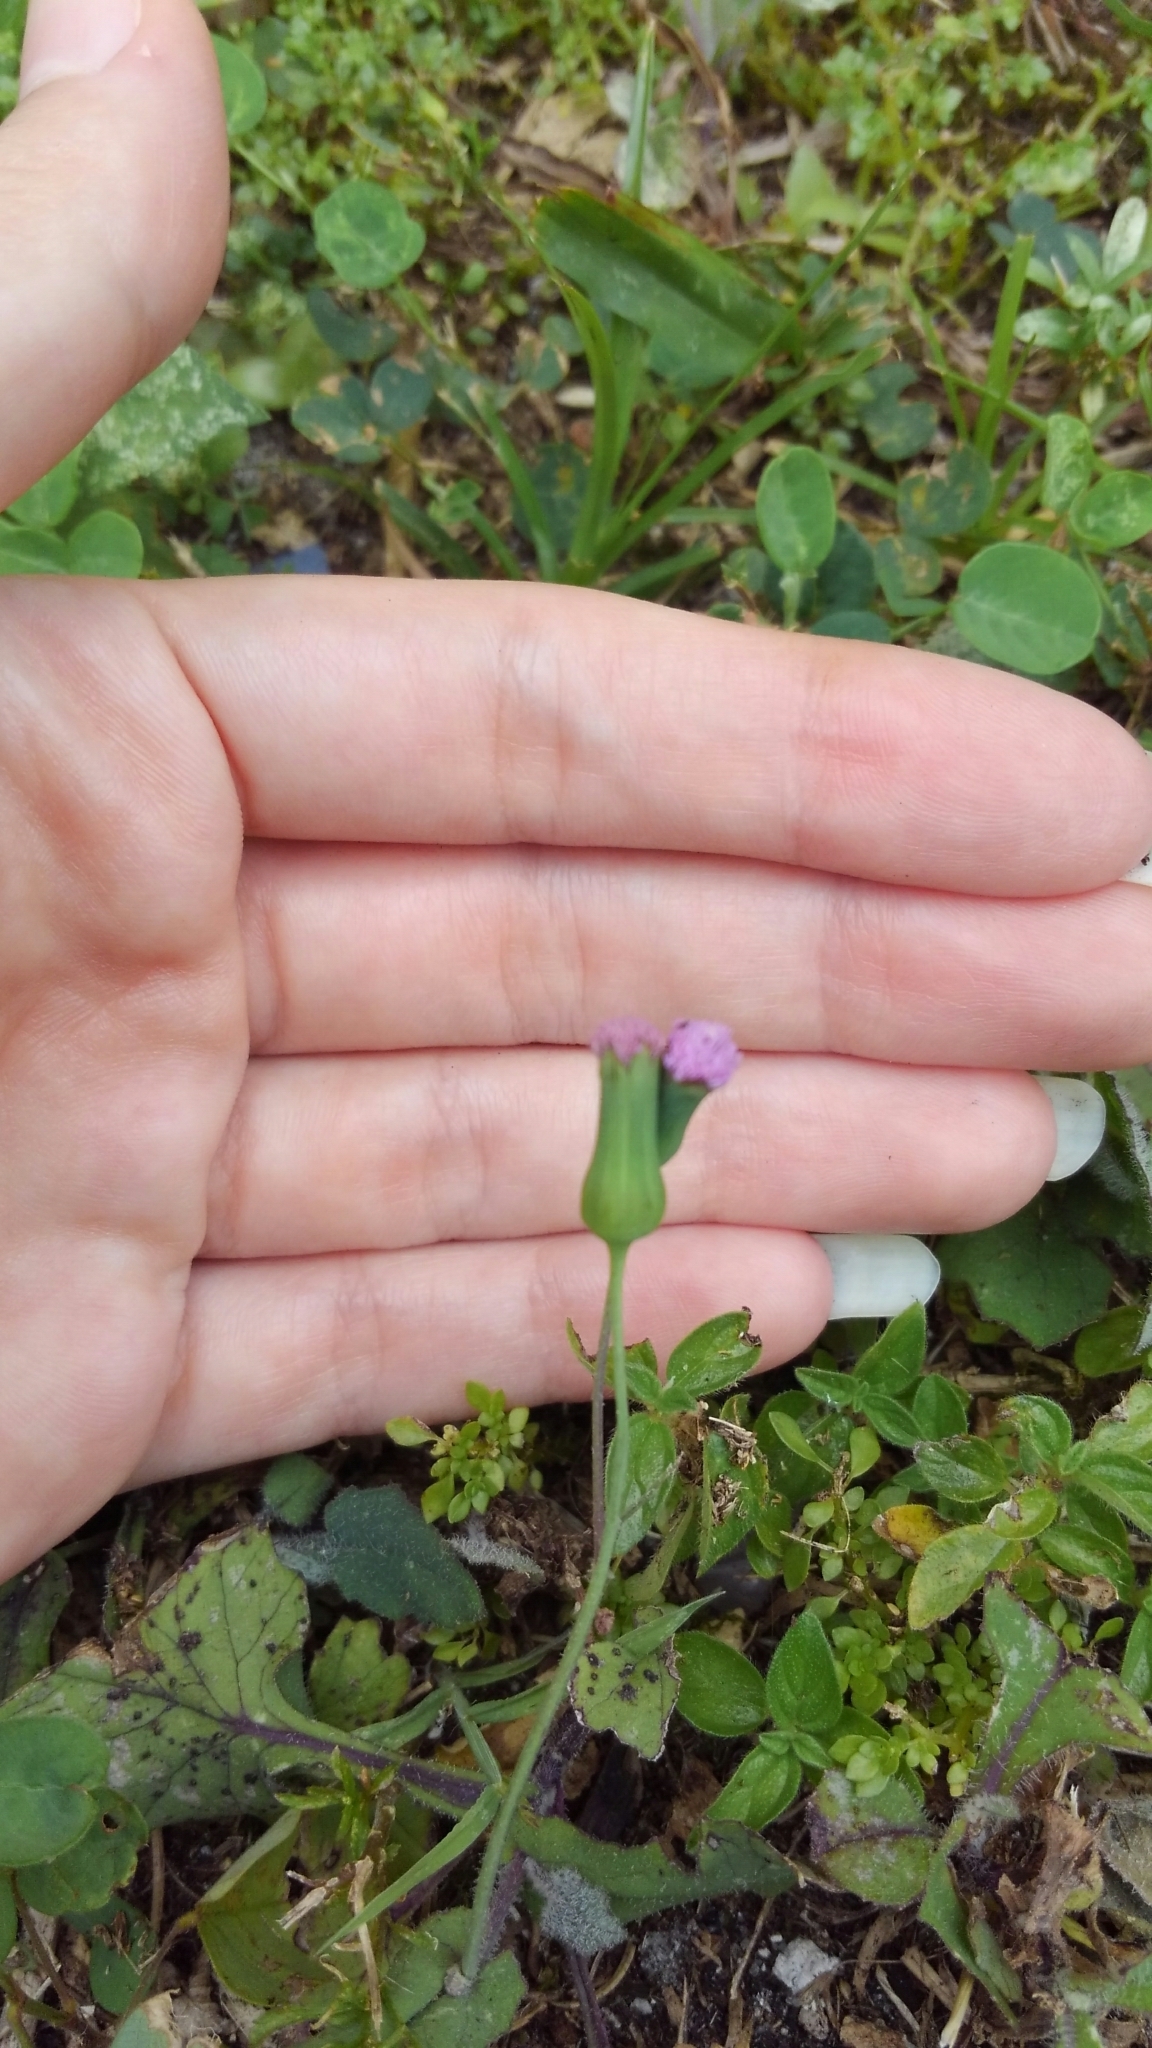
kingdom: Plantae
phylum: Tracheophyta
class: Magnoliopsida
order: Asterales
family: Asteraceae
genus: Emilia
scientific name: Emilia sonchifolia
